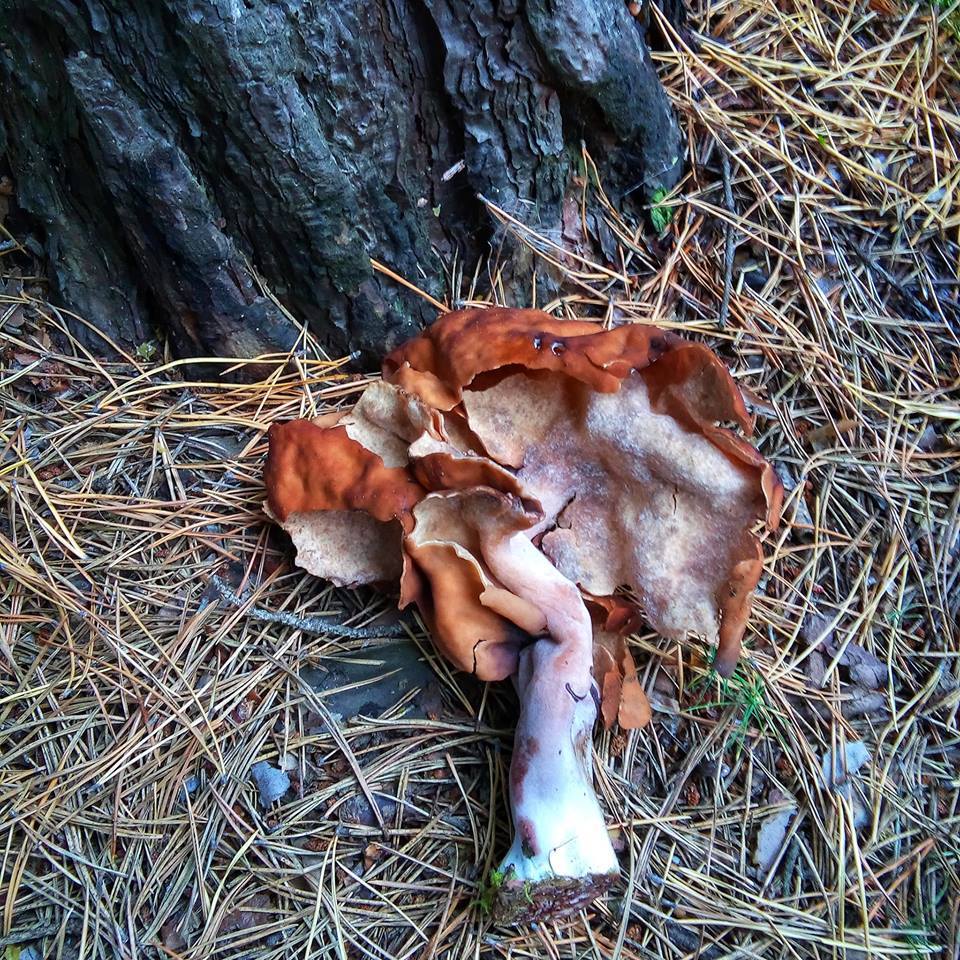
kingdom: Fungi
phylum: Ascomycota
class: Pezizomycetes
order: Pezizales
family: Discinaceae
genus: Gyromitra
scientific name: Gyromitra infula
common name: Pouched false morel
